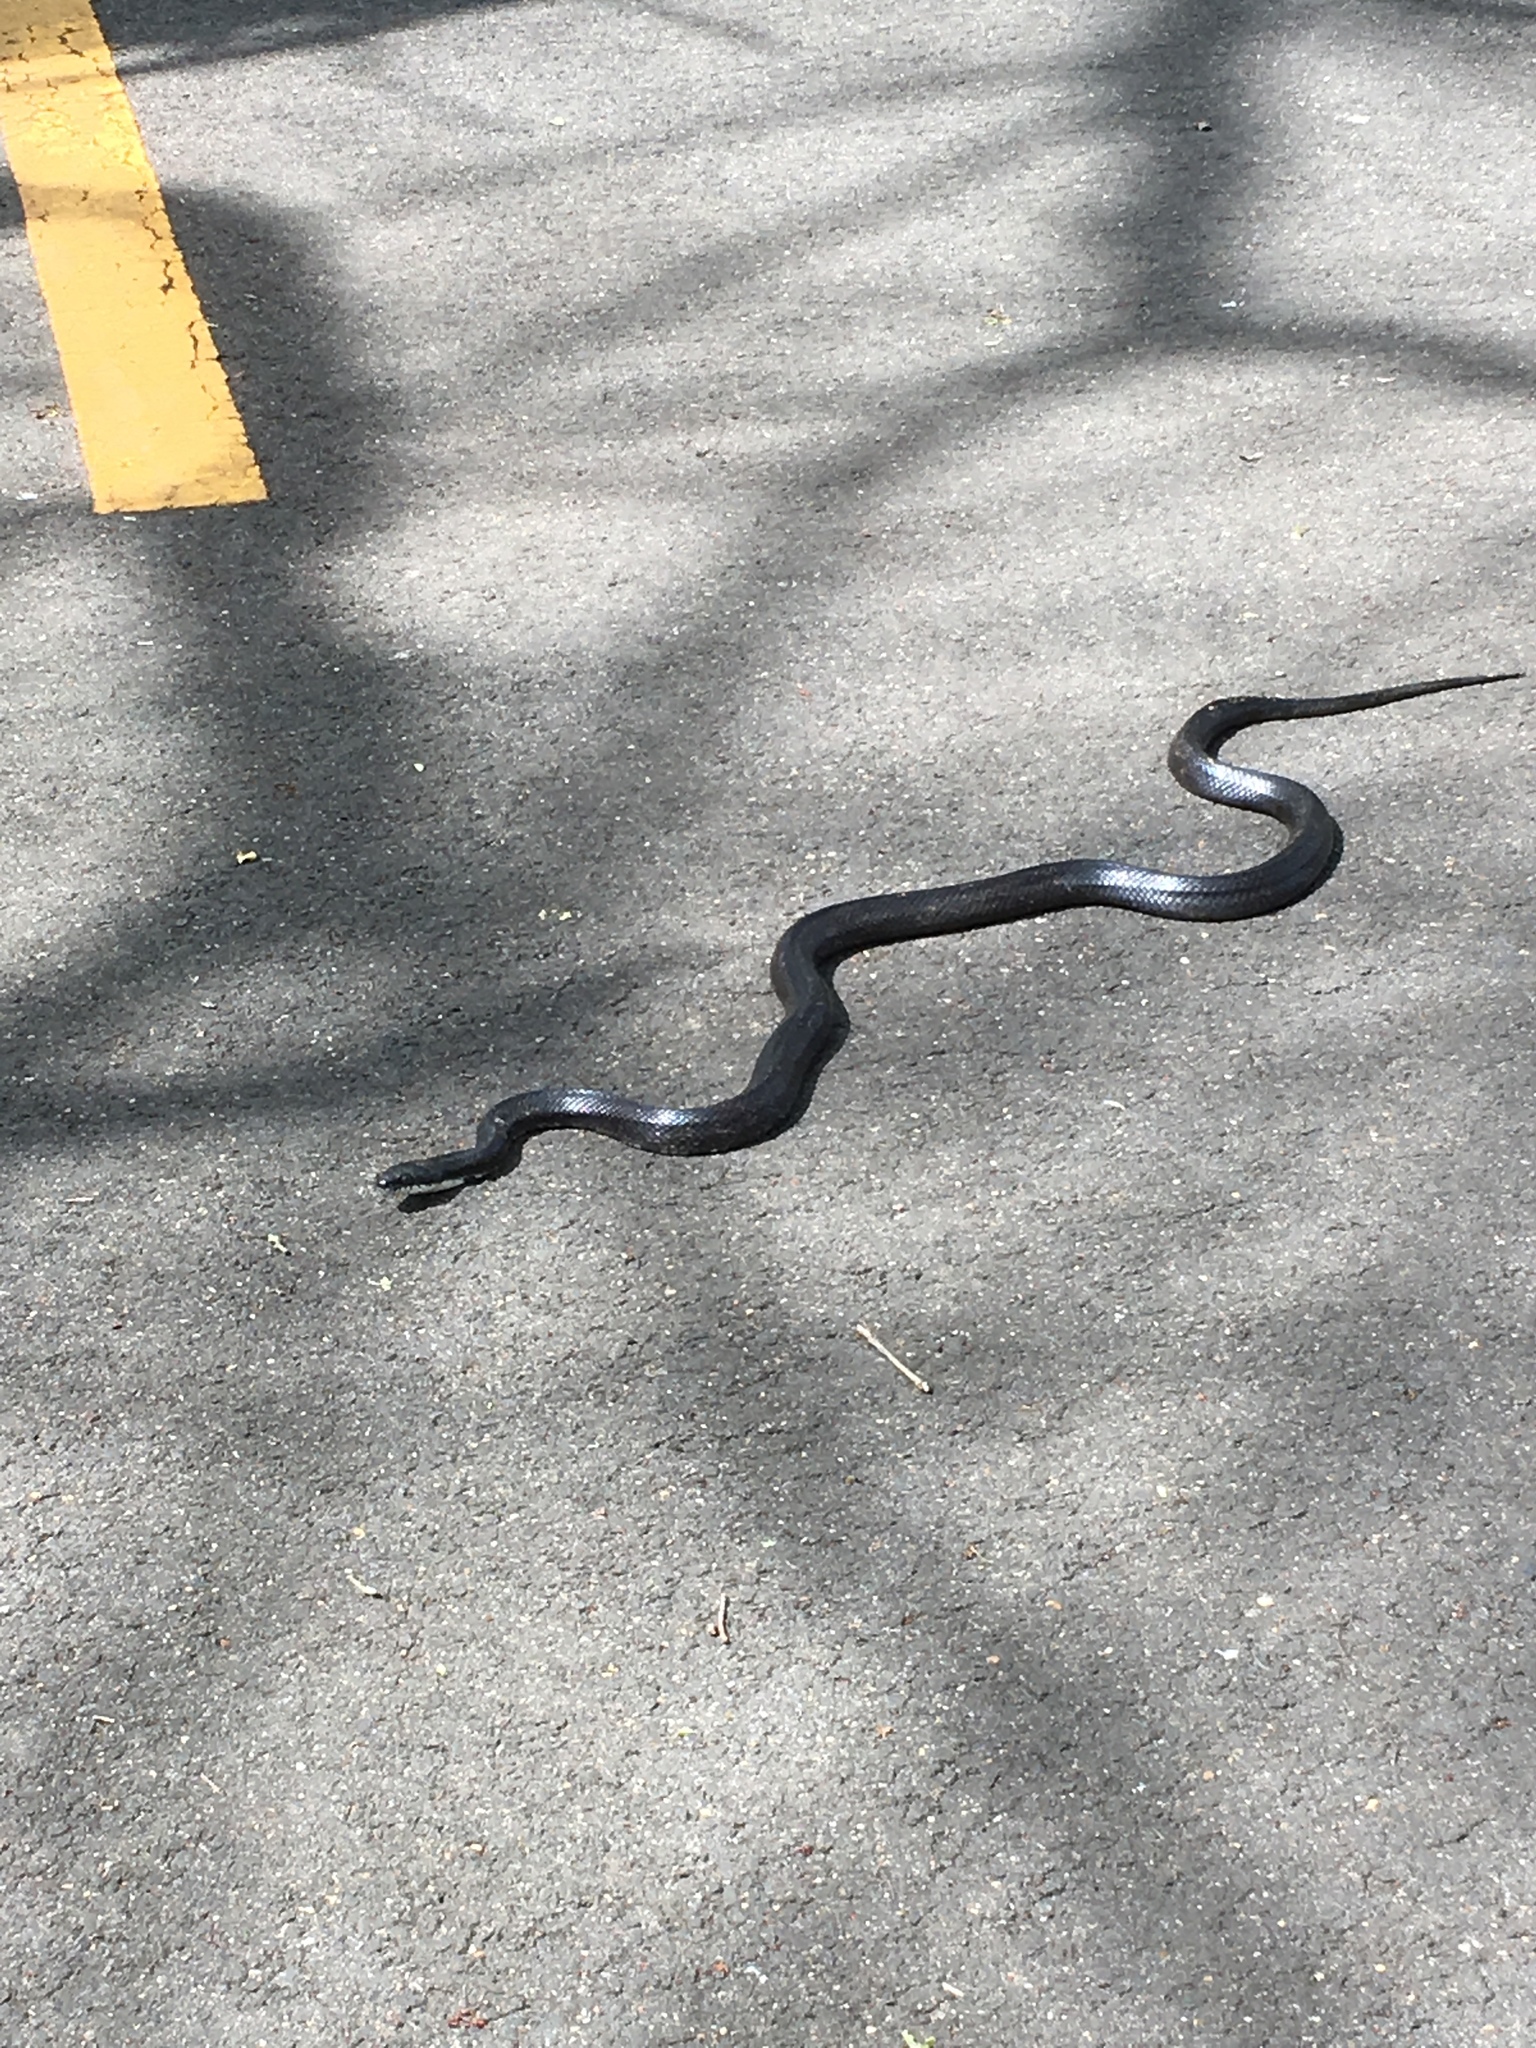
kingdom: Animalia
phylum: Chordata
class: Squamata
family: Colubridae
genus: Pantherophis
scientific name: Pantherophis alleghaniensis
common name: Eastern rat snake
